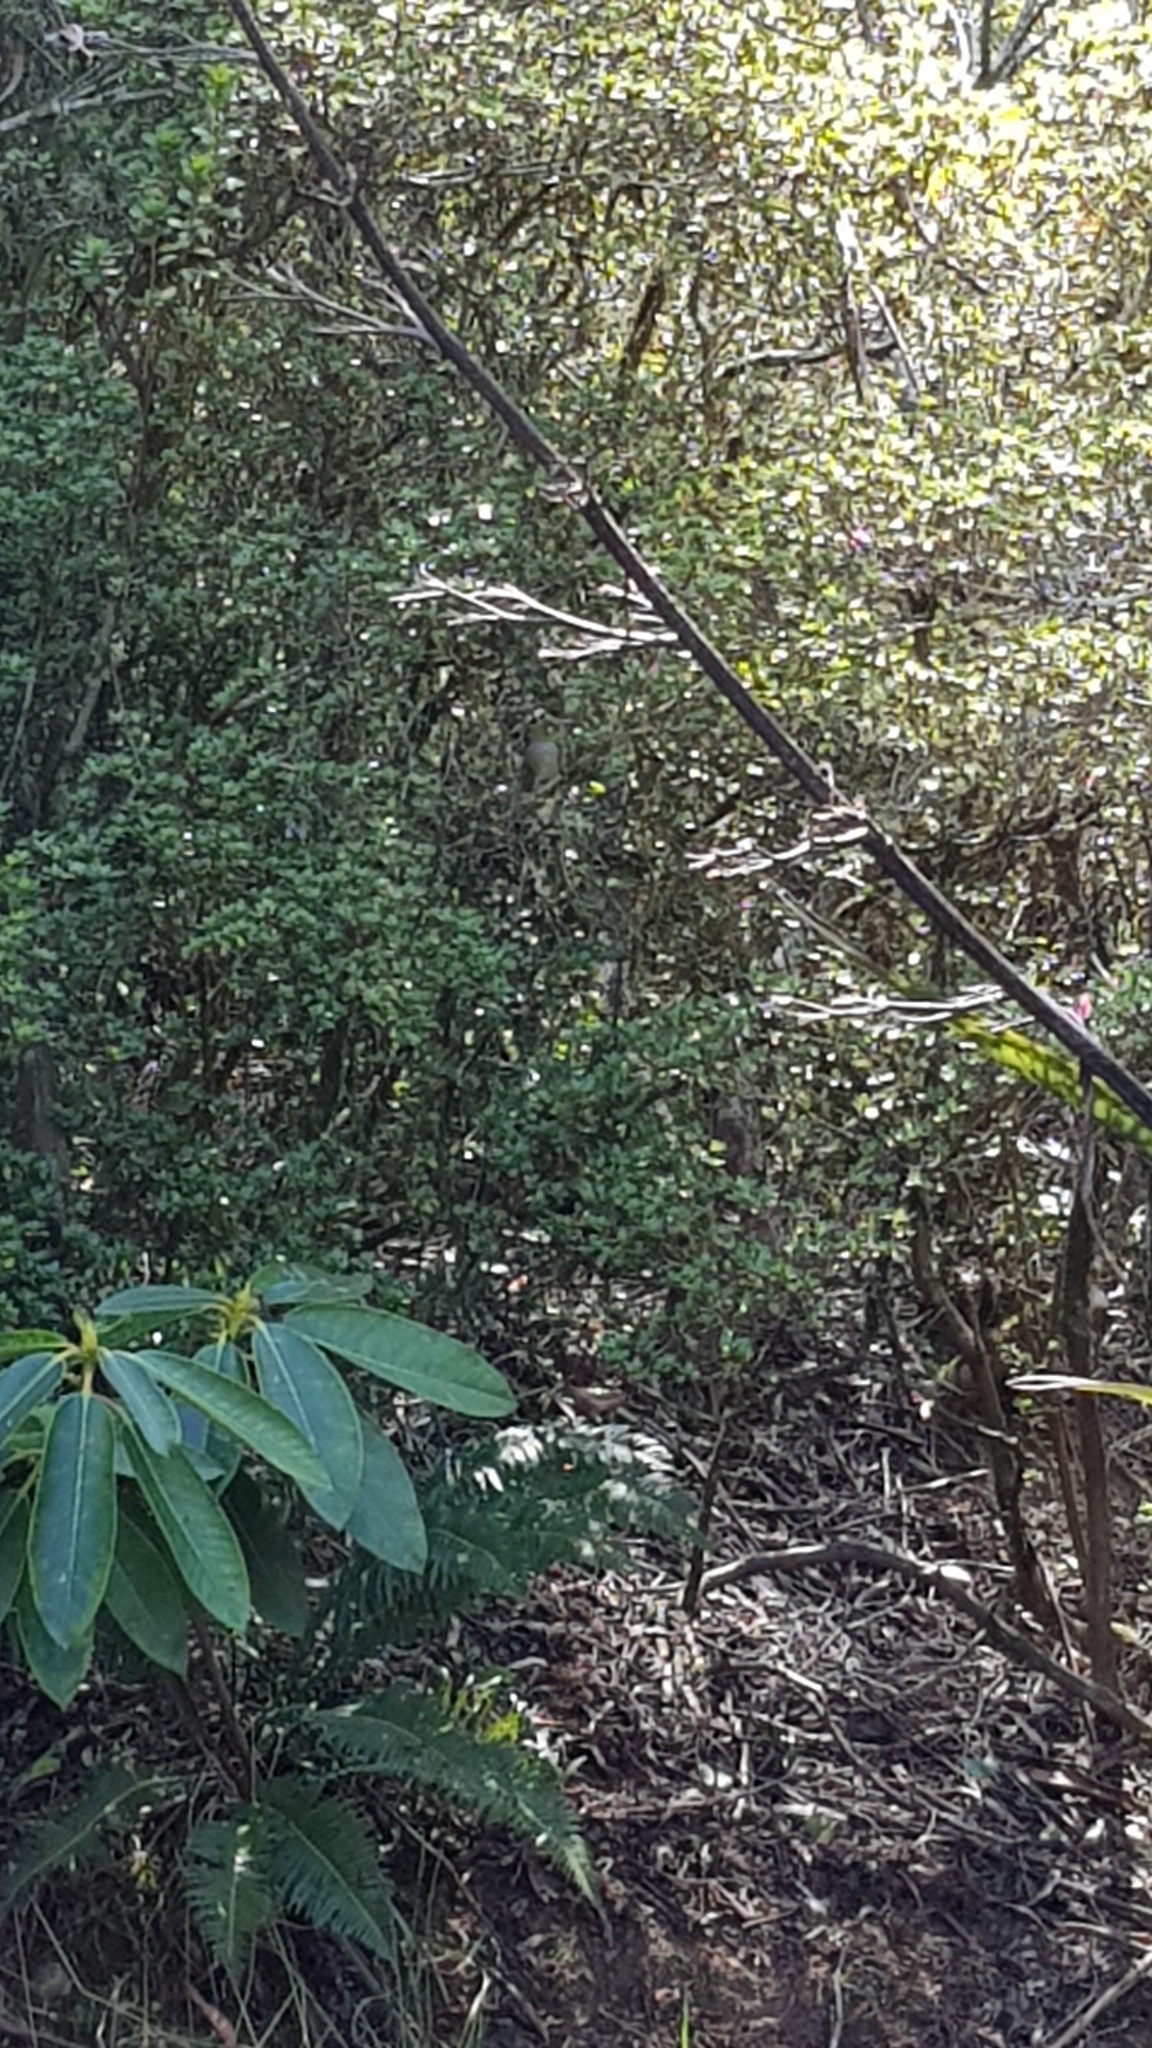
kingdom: Animalia
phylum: Chordata
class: Aves
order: Passeriformes
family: Zosteropidae
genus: Zosterops
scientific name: Zosterops lateralis
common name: Silvereye
